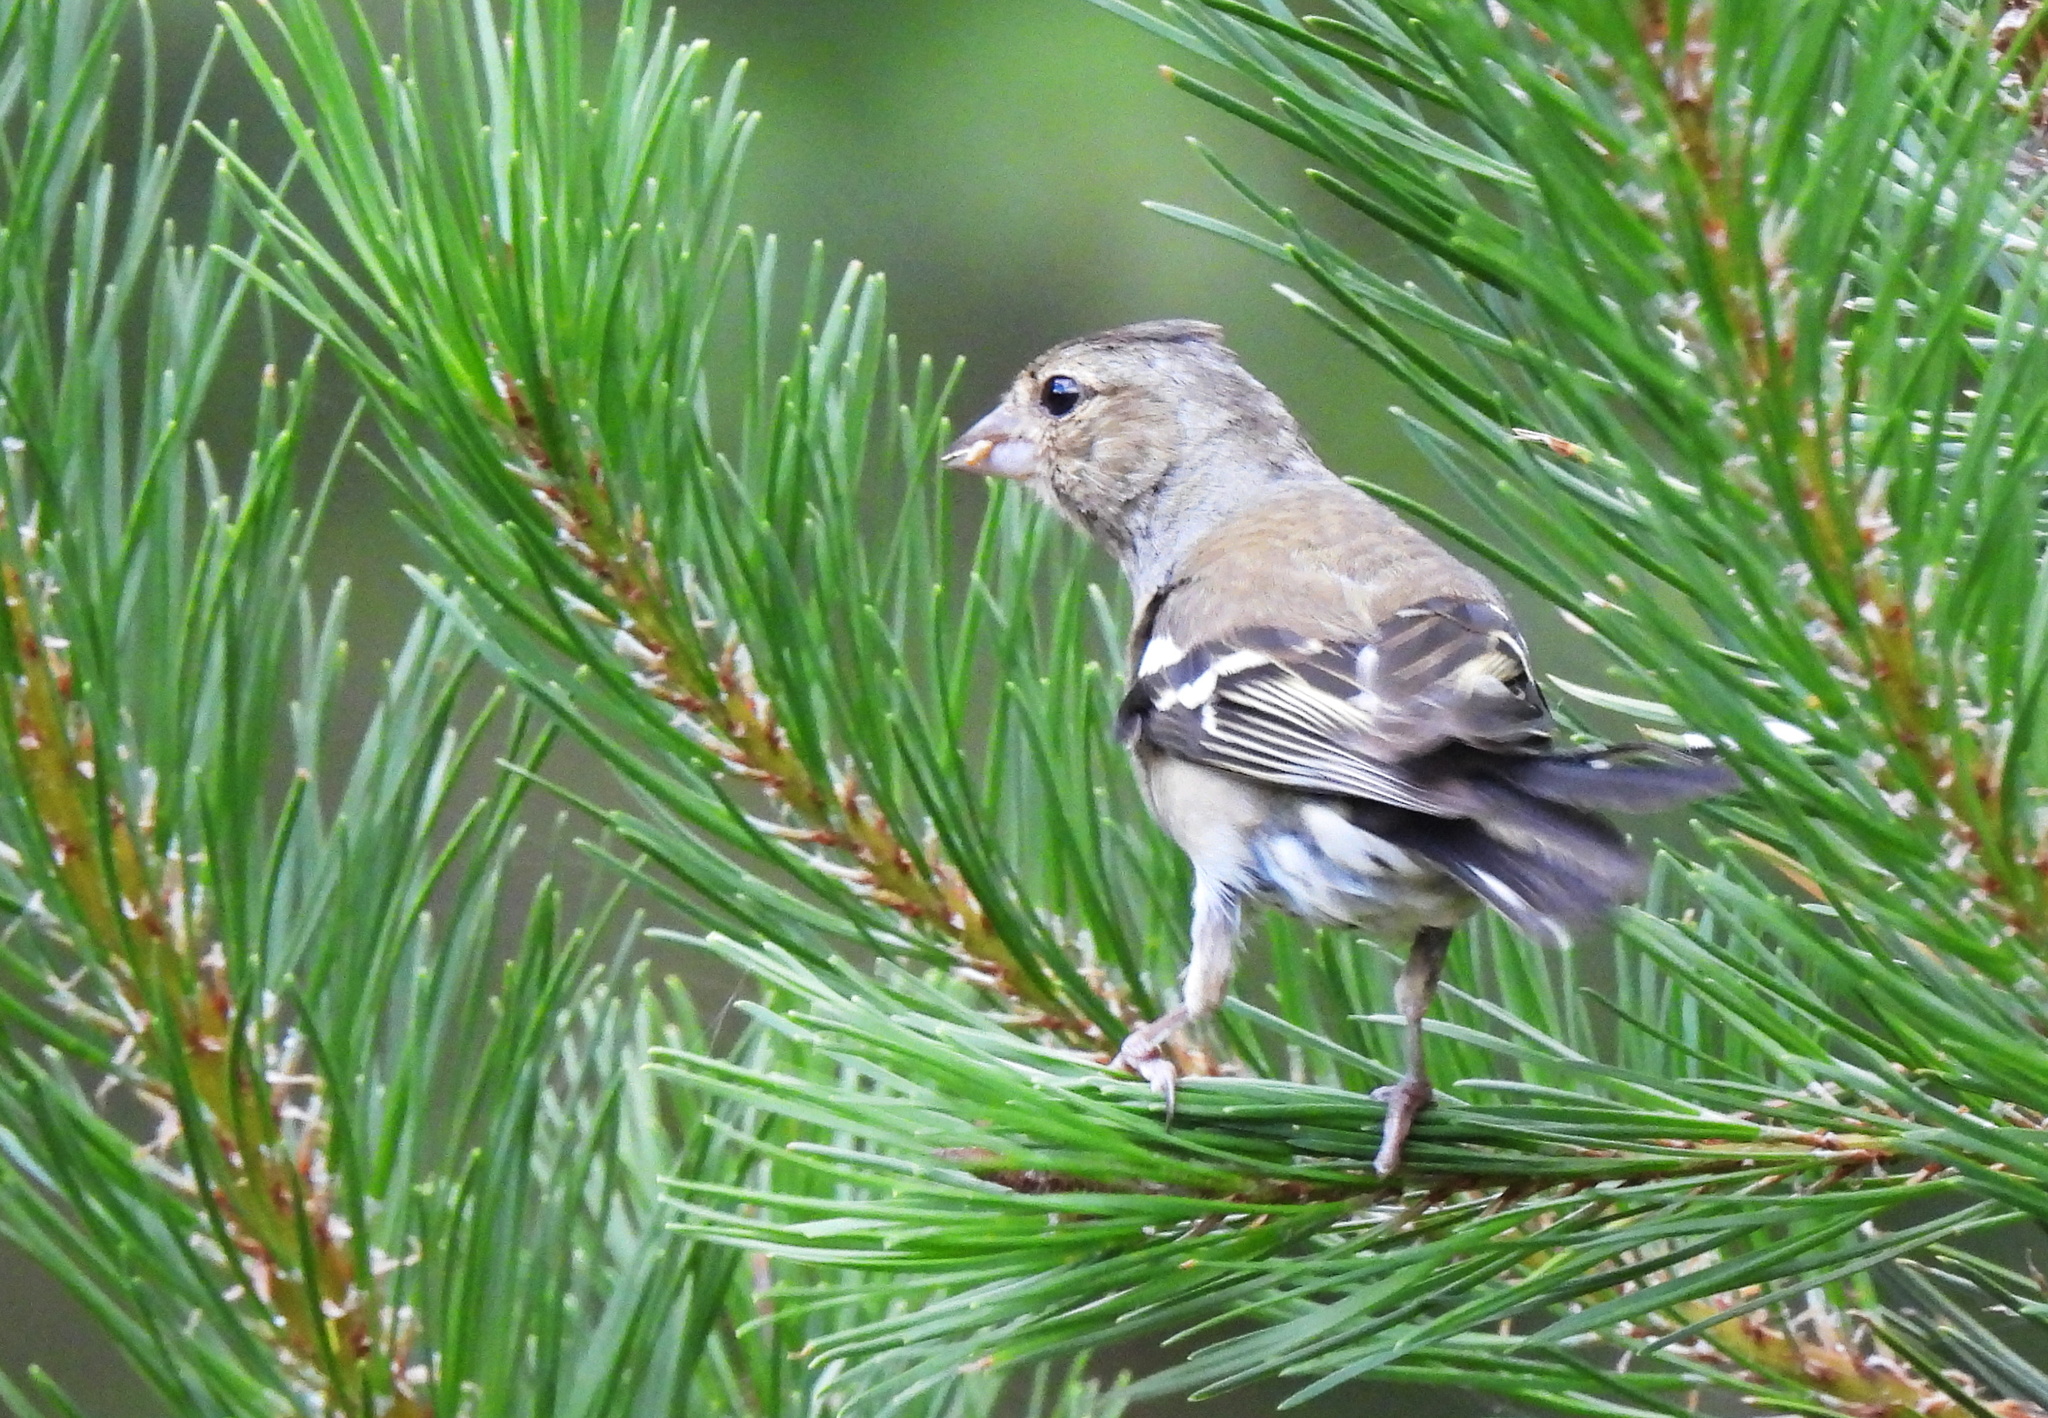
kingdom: Animalia
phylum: Chordata
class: Aves
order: Passeriformes
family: Fringillidae
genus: Fringilla
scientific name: Fringilla coelebs
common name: Common chaffinch
